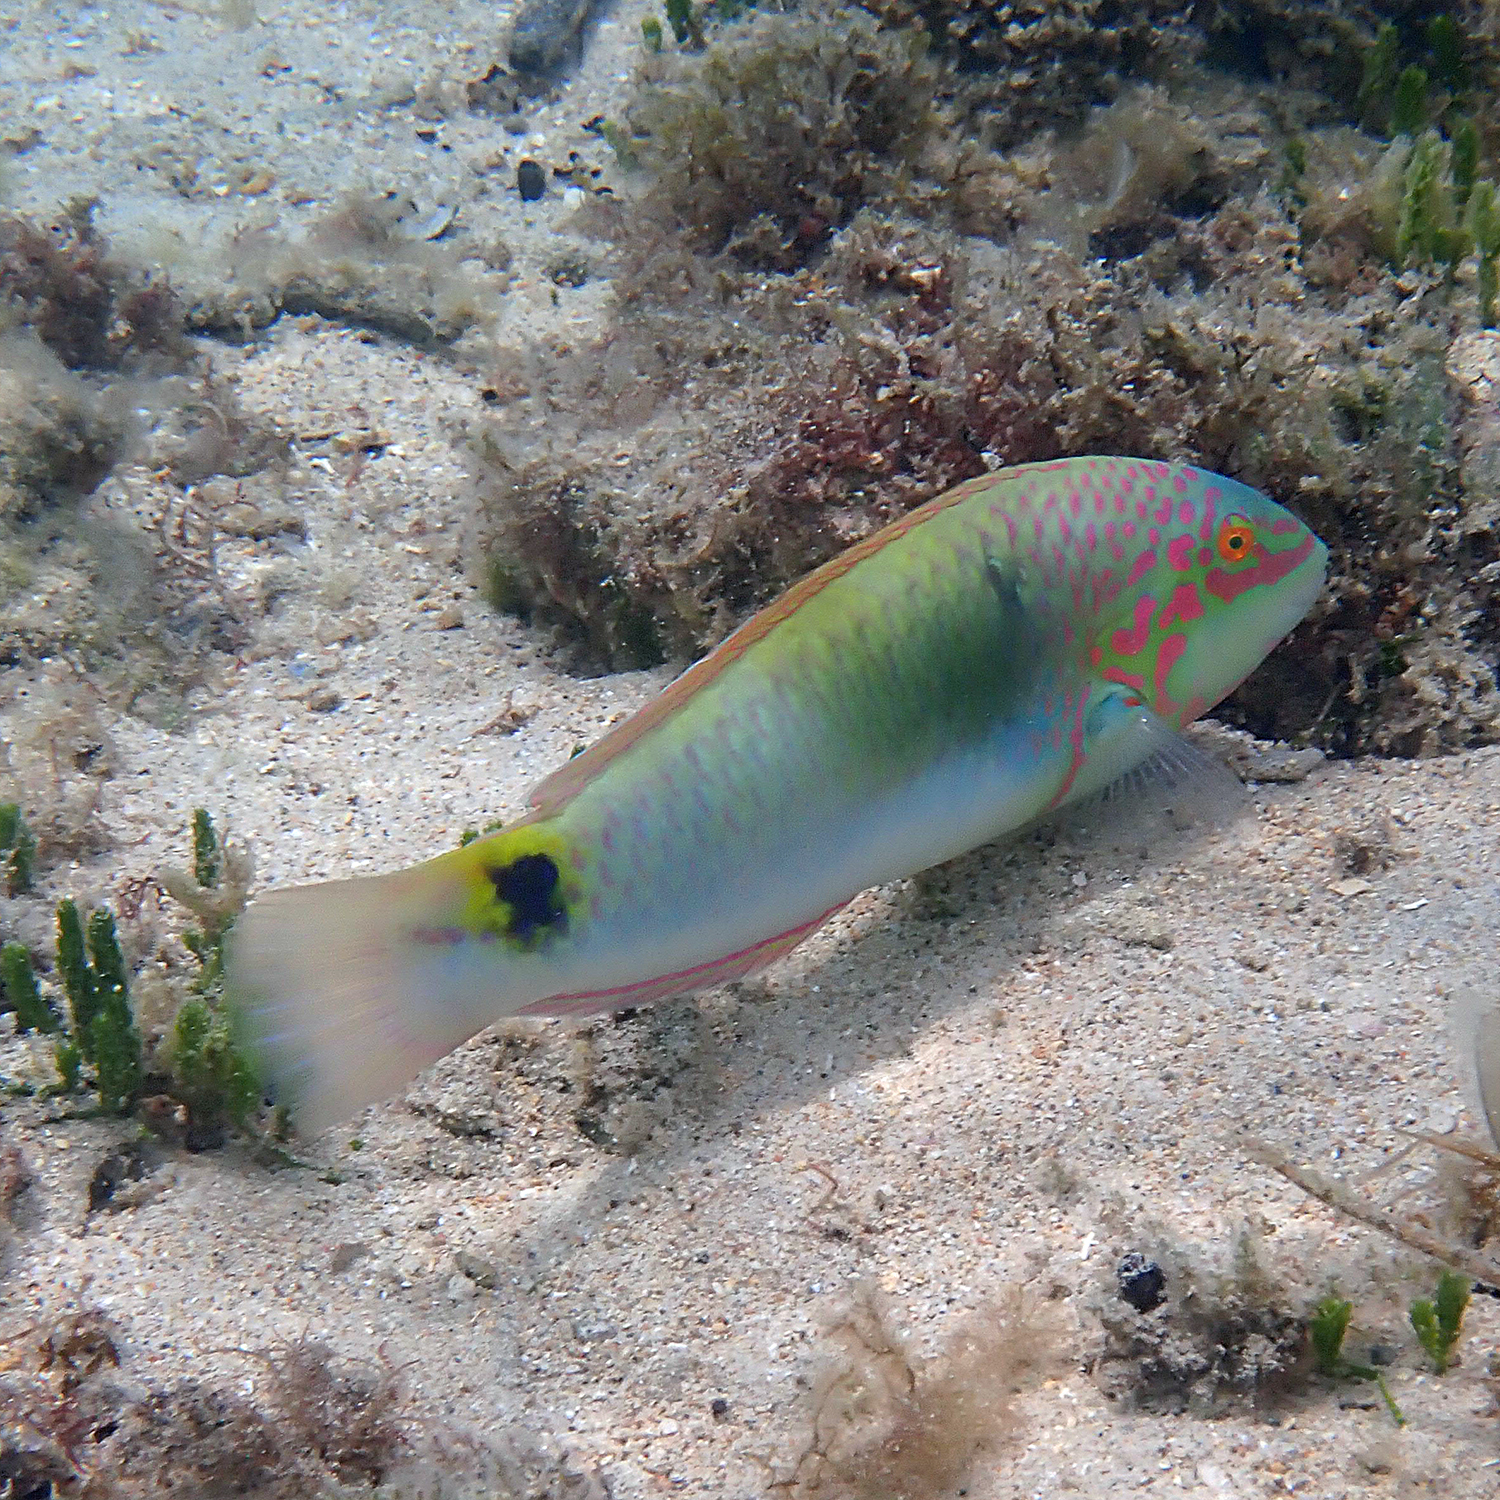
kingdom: Animalia
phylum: Chordata
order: Perciformes
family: Labridae
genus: Halichoeres
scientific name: Halichoeres trimaculatus
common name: Three-spot wrasse
